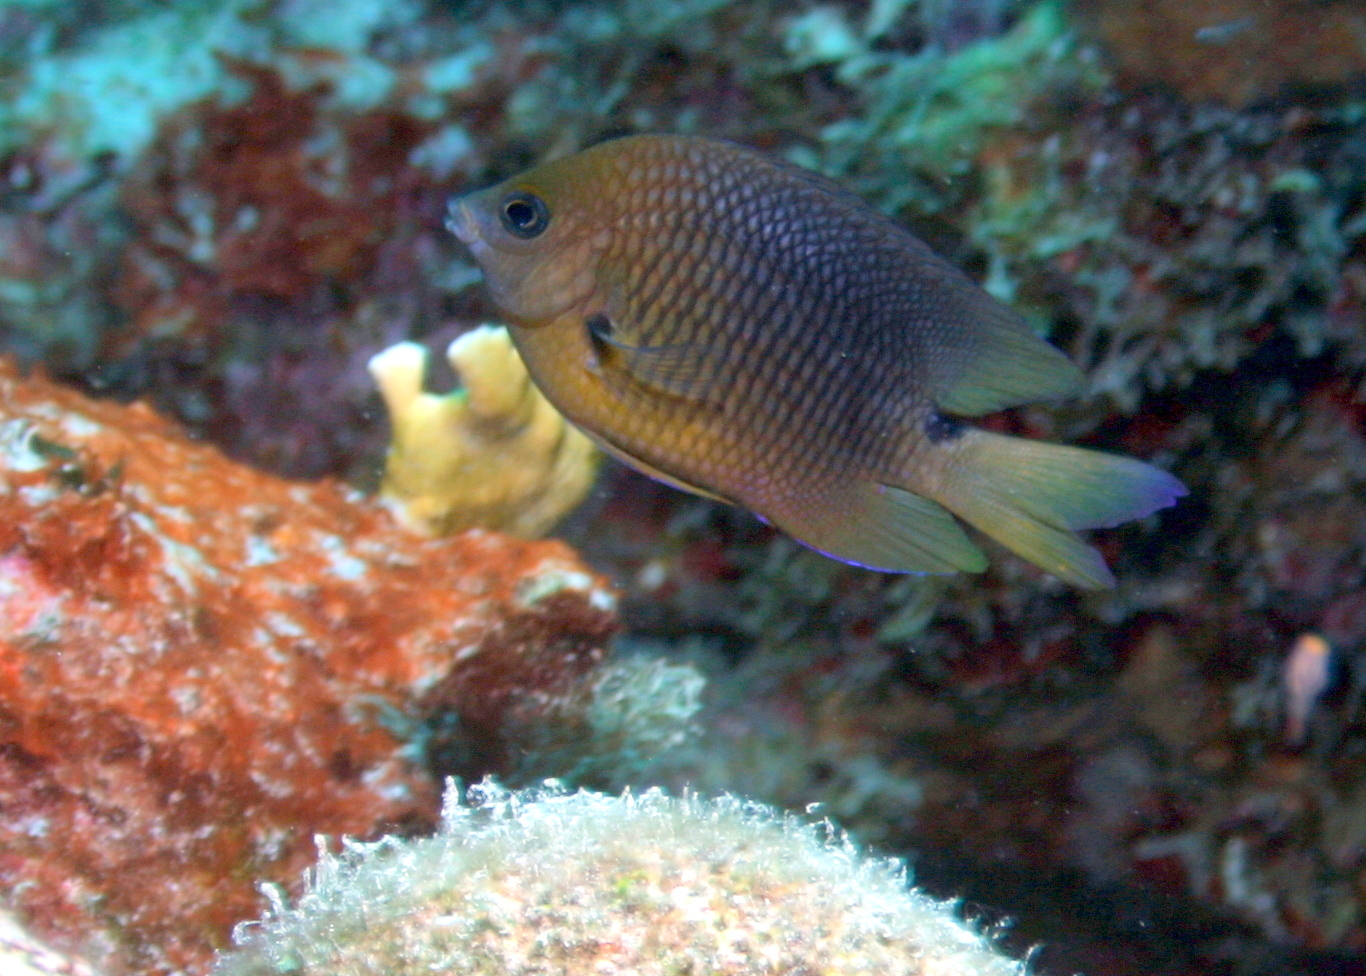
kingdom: Animalia
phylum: Chordata
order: Perciformes
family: Pomacentridae
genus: Stegastes
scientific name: Stegastes planifrons
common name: Threespot damselfish
